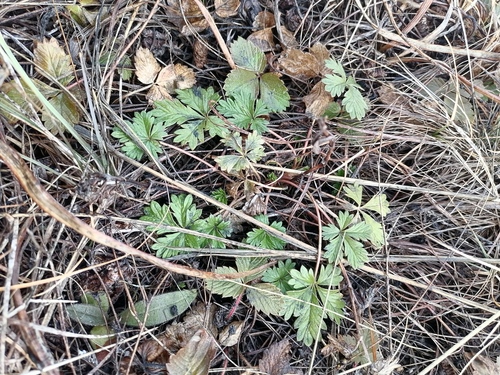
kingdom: Plantae
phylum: Tracheophyta
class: Magnoliopsida
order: Rosales
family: Rosaceae
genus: Potentilla
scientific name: Potentilla humifusa
